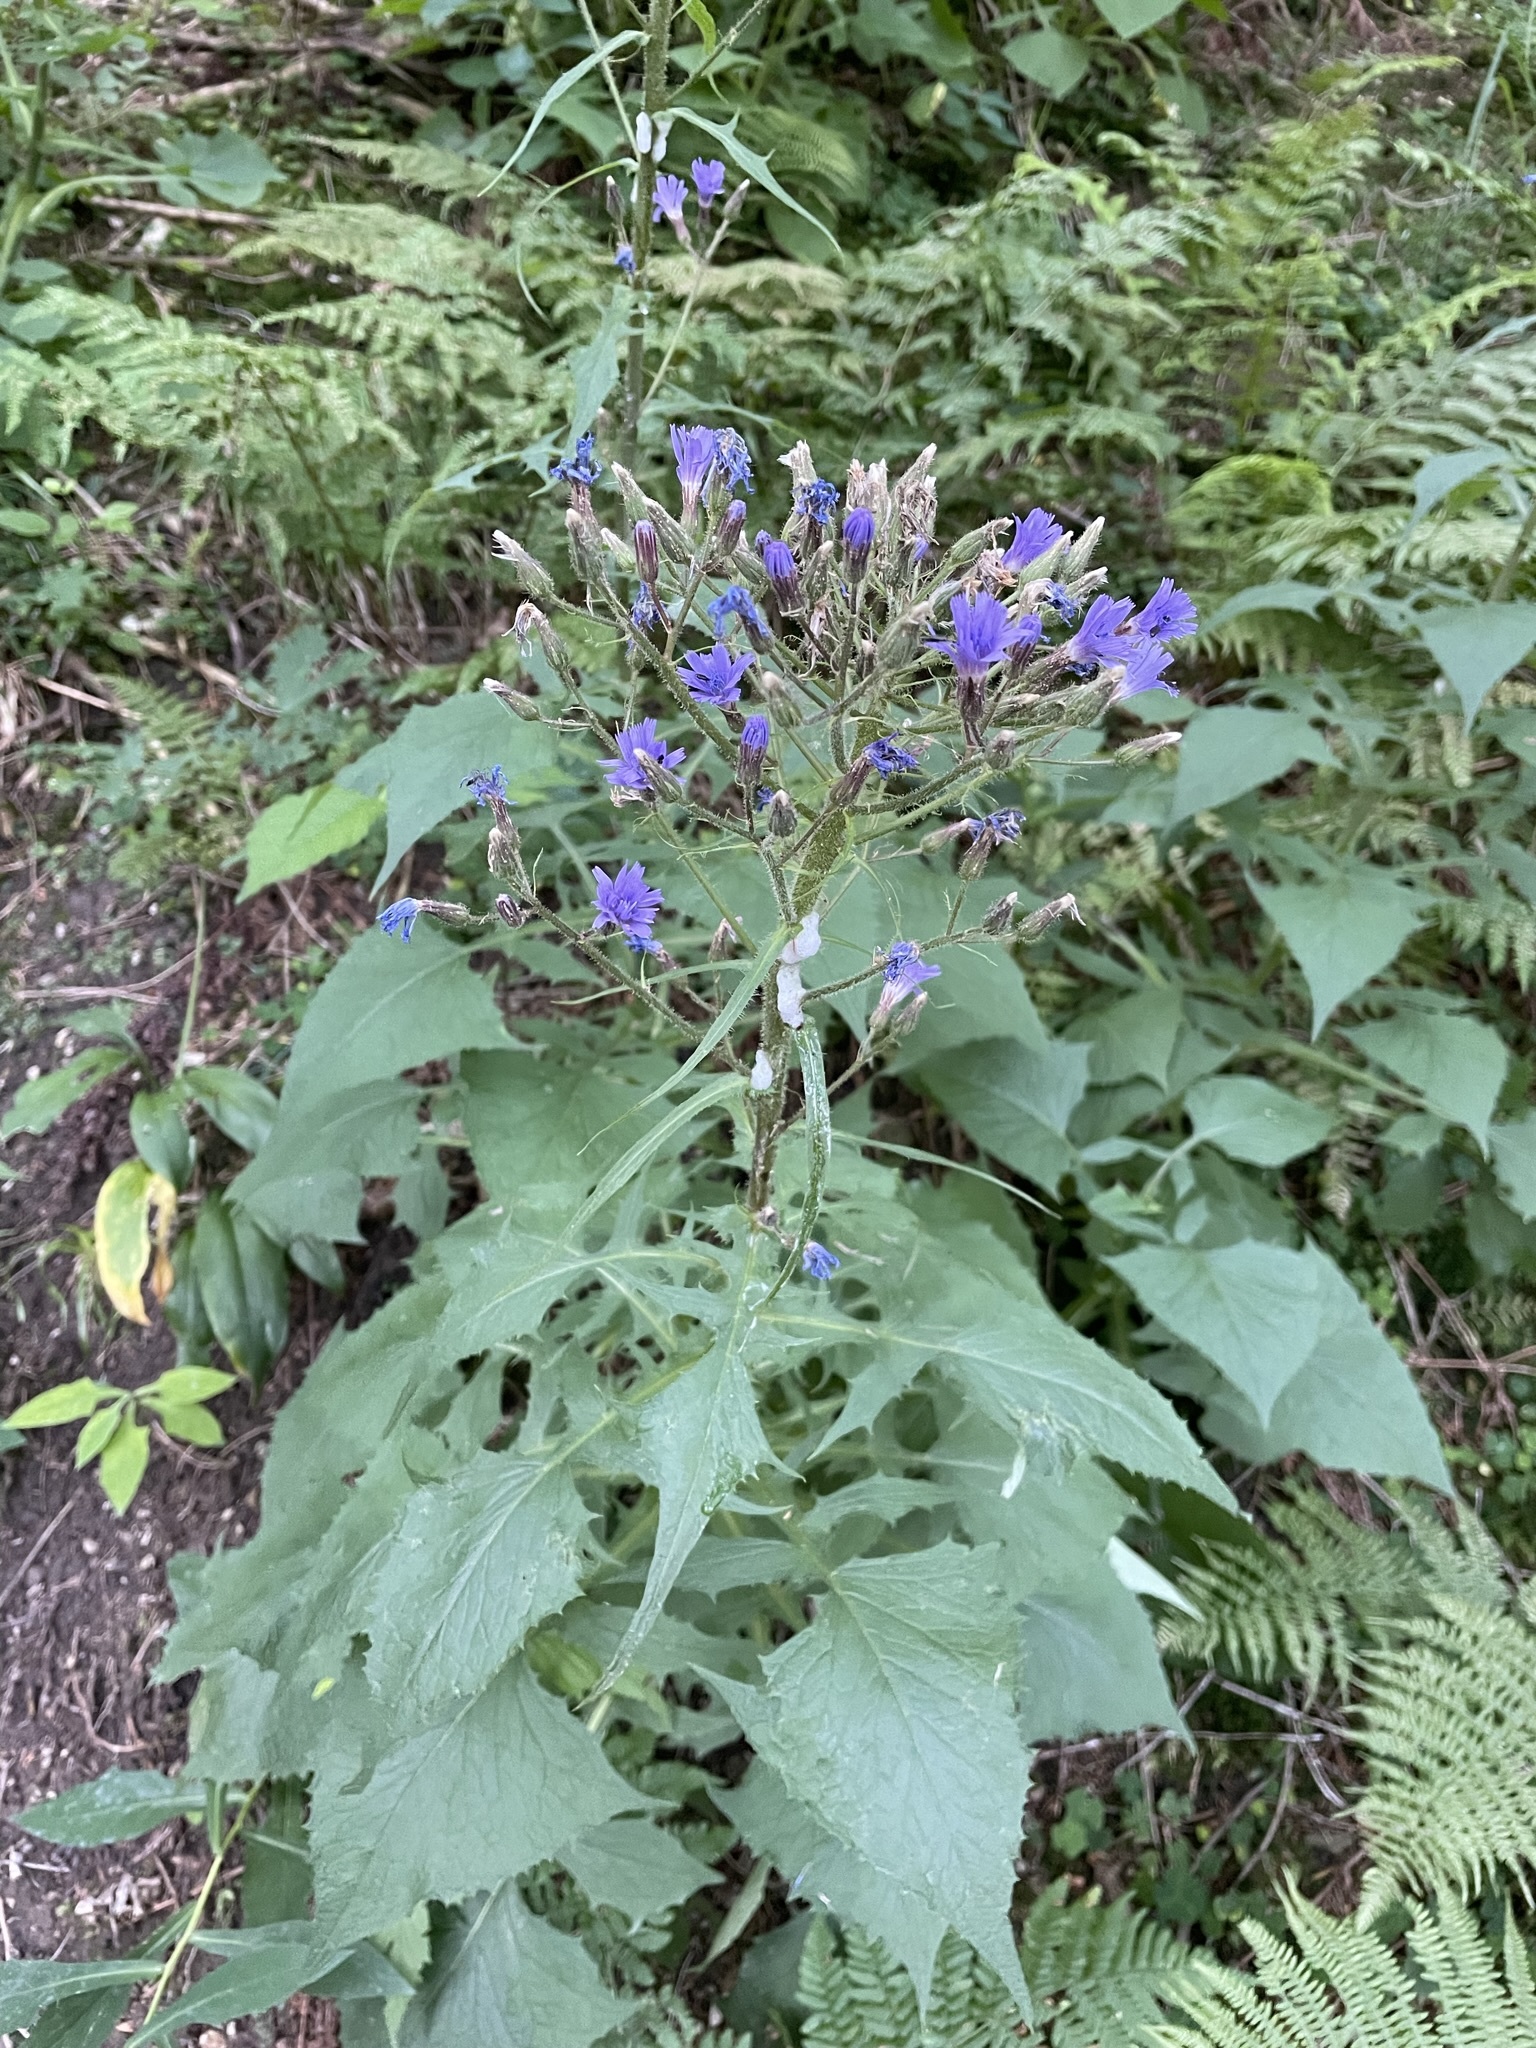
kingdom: Plantae
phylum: Tracheophyta
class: Magnoliopsida
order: Asterales
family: Asteraceae
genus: Cicerbita
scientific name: Cicerbita alpina
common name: Alpine blue-sow-thistle
